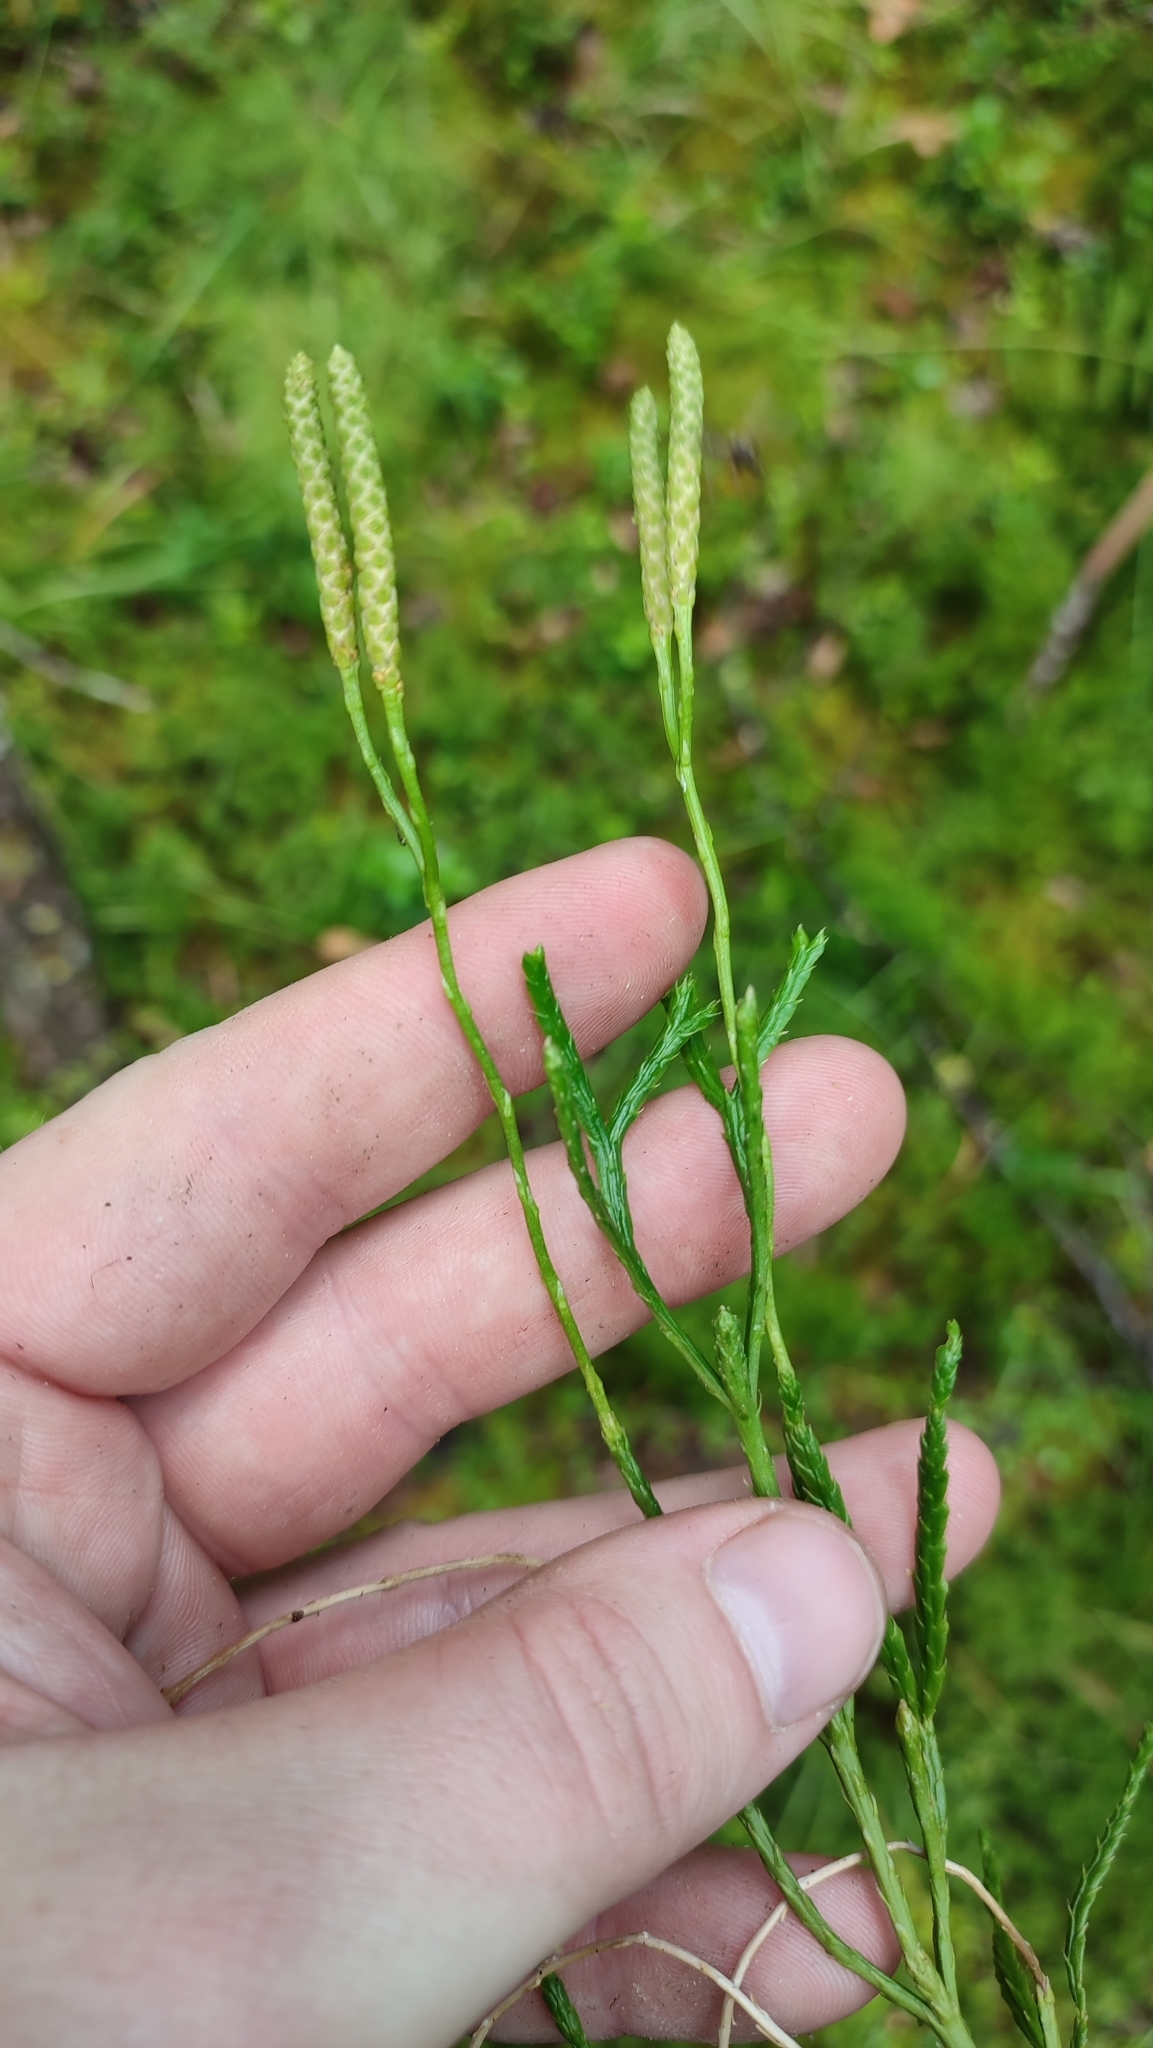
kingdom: Plantae
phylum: Tracheophyta
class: Lycopodiopsida
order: Lycopodiales
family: Lycopodiaceae
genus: Diphasiastrum
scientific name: Diphasiastrum complanatum
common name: Northern running-pine
